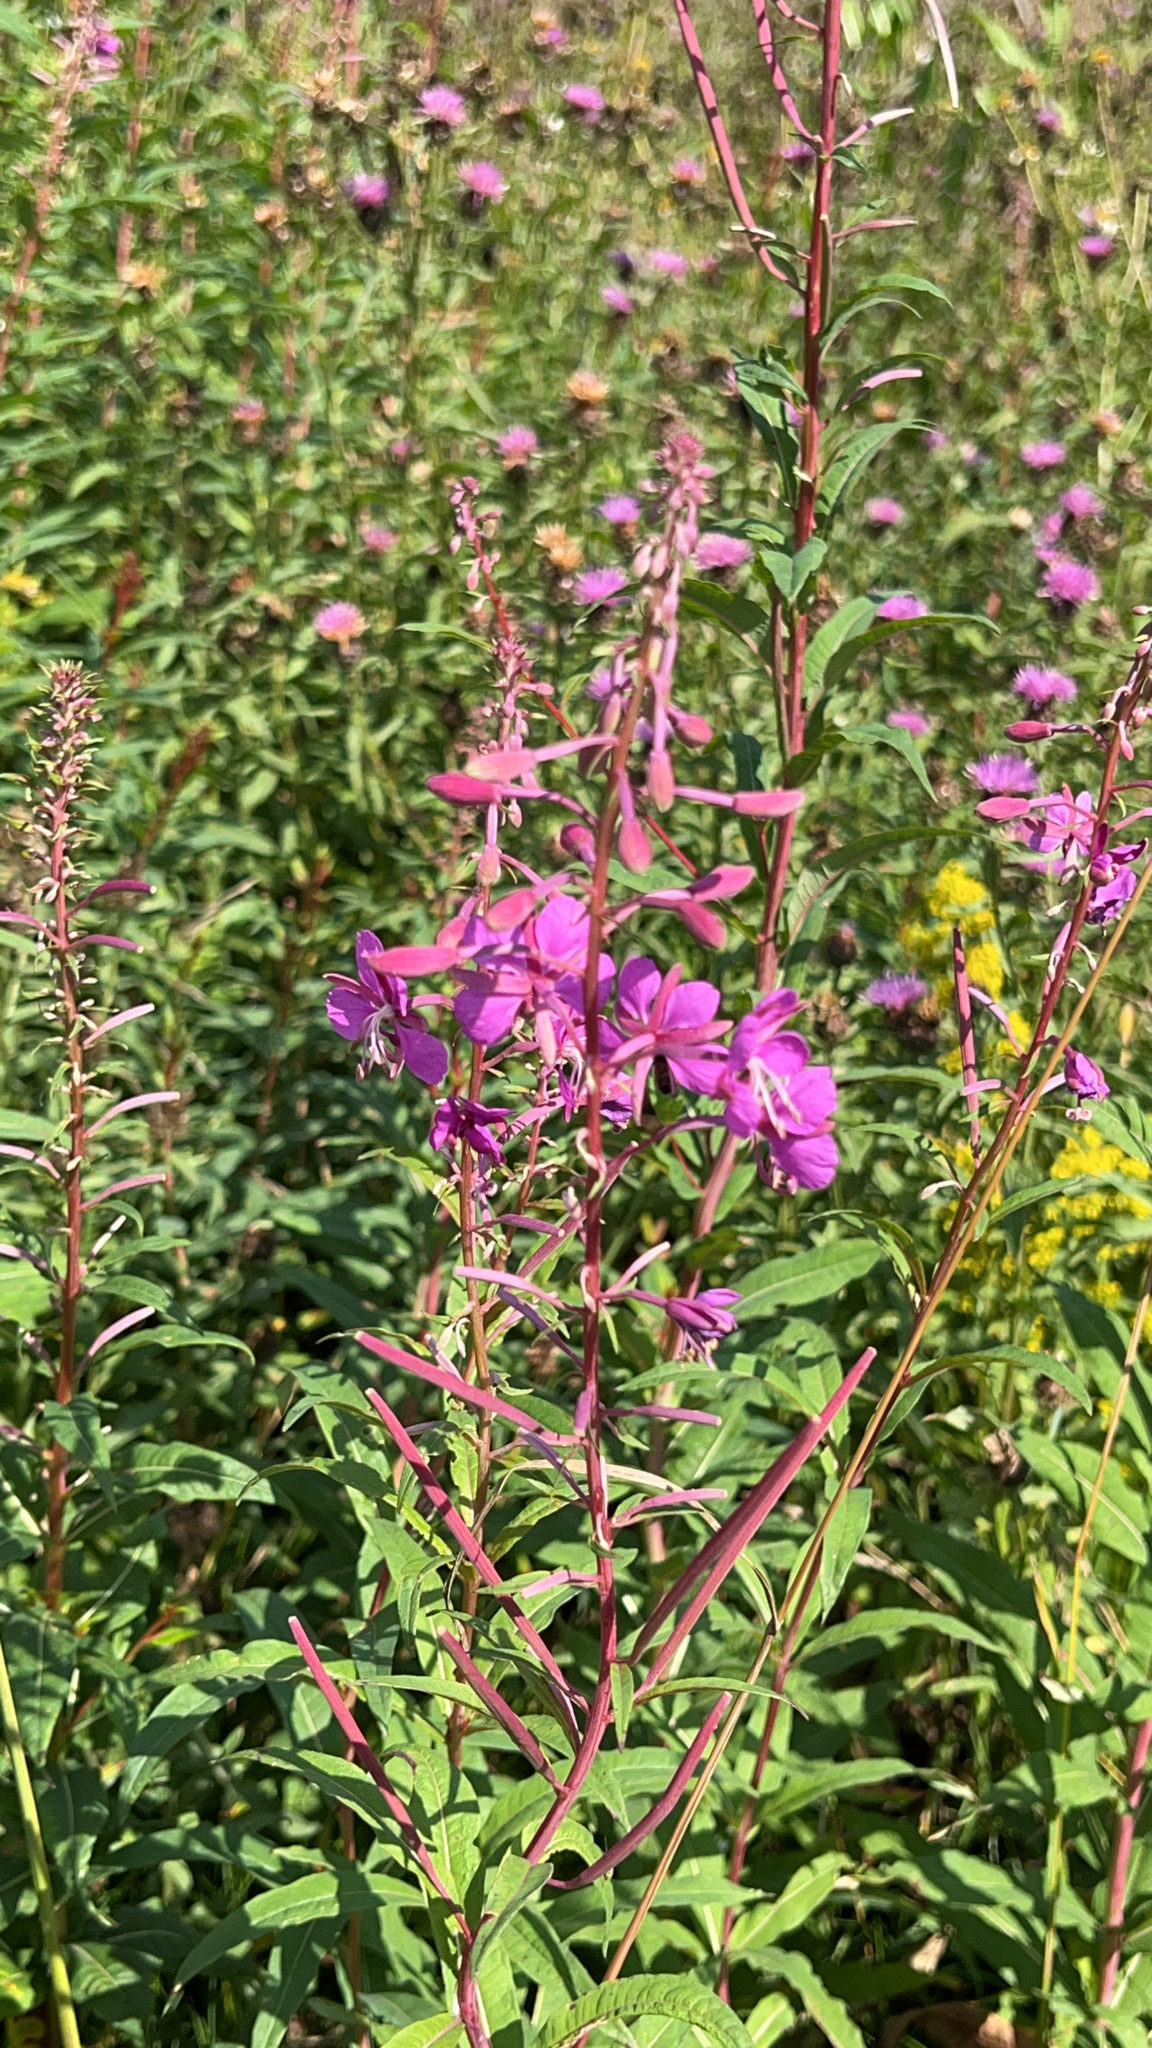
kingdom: Plantae
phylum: Tracheophyta
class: Magnoliopsida
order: Myrtales
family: Onagraceae
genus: Chamaenerion
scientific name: Chamaenerion angustifolium
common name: Fireweed
